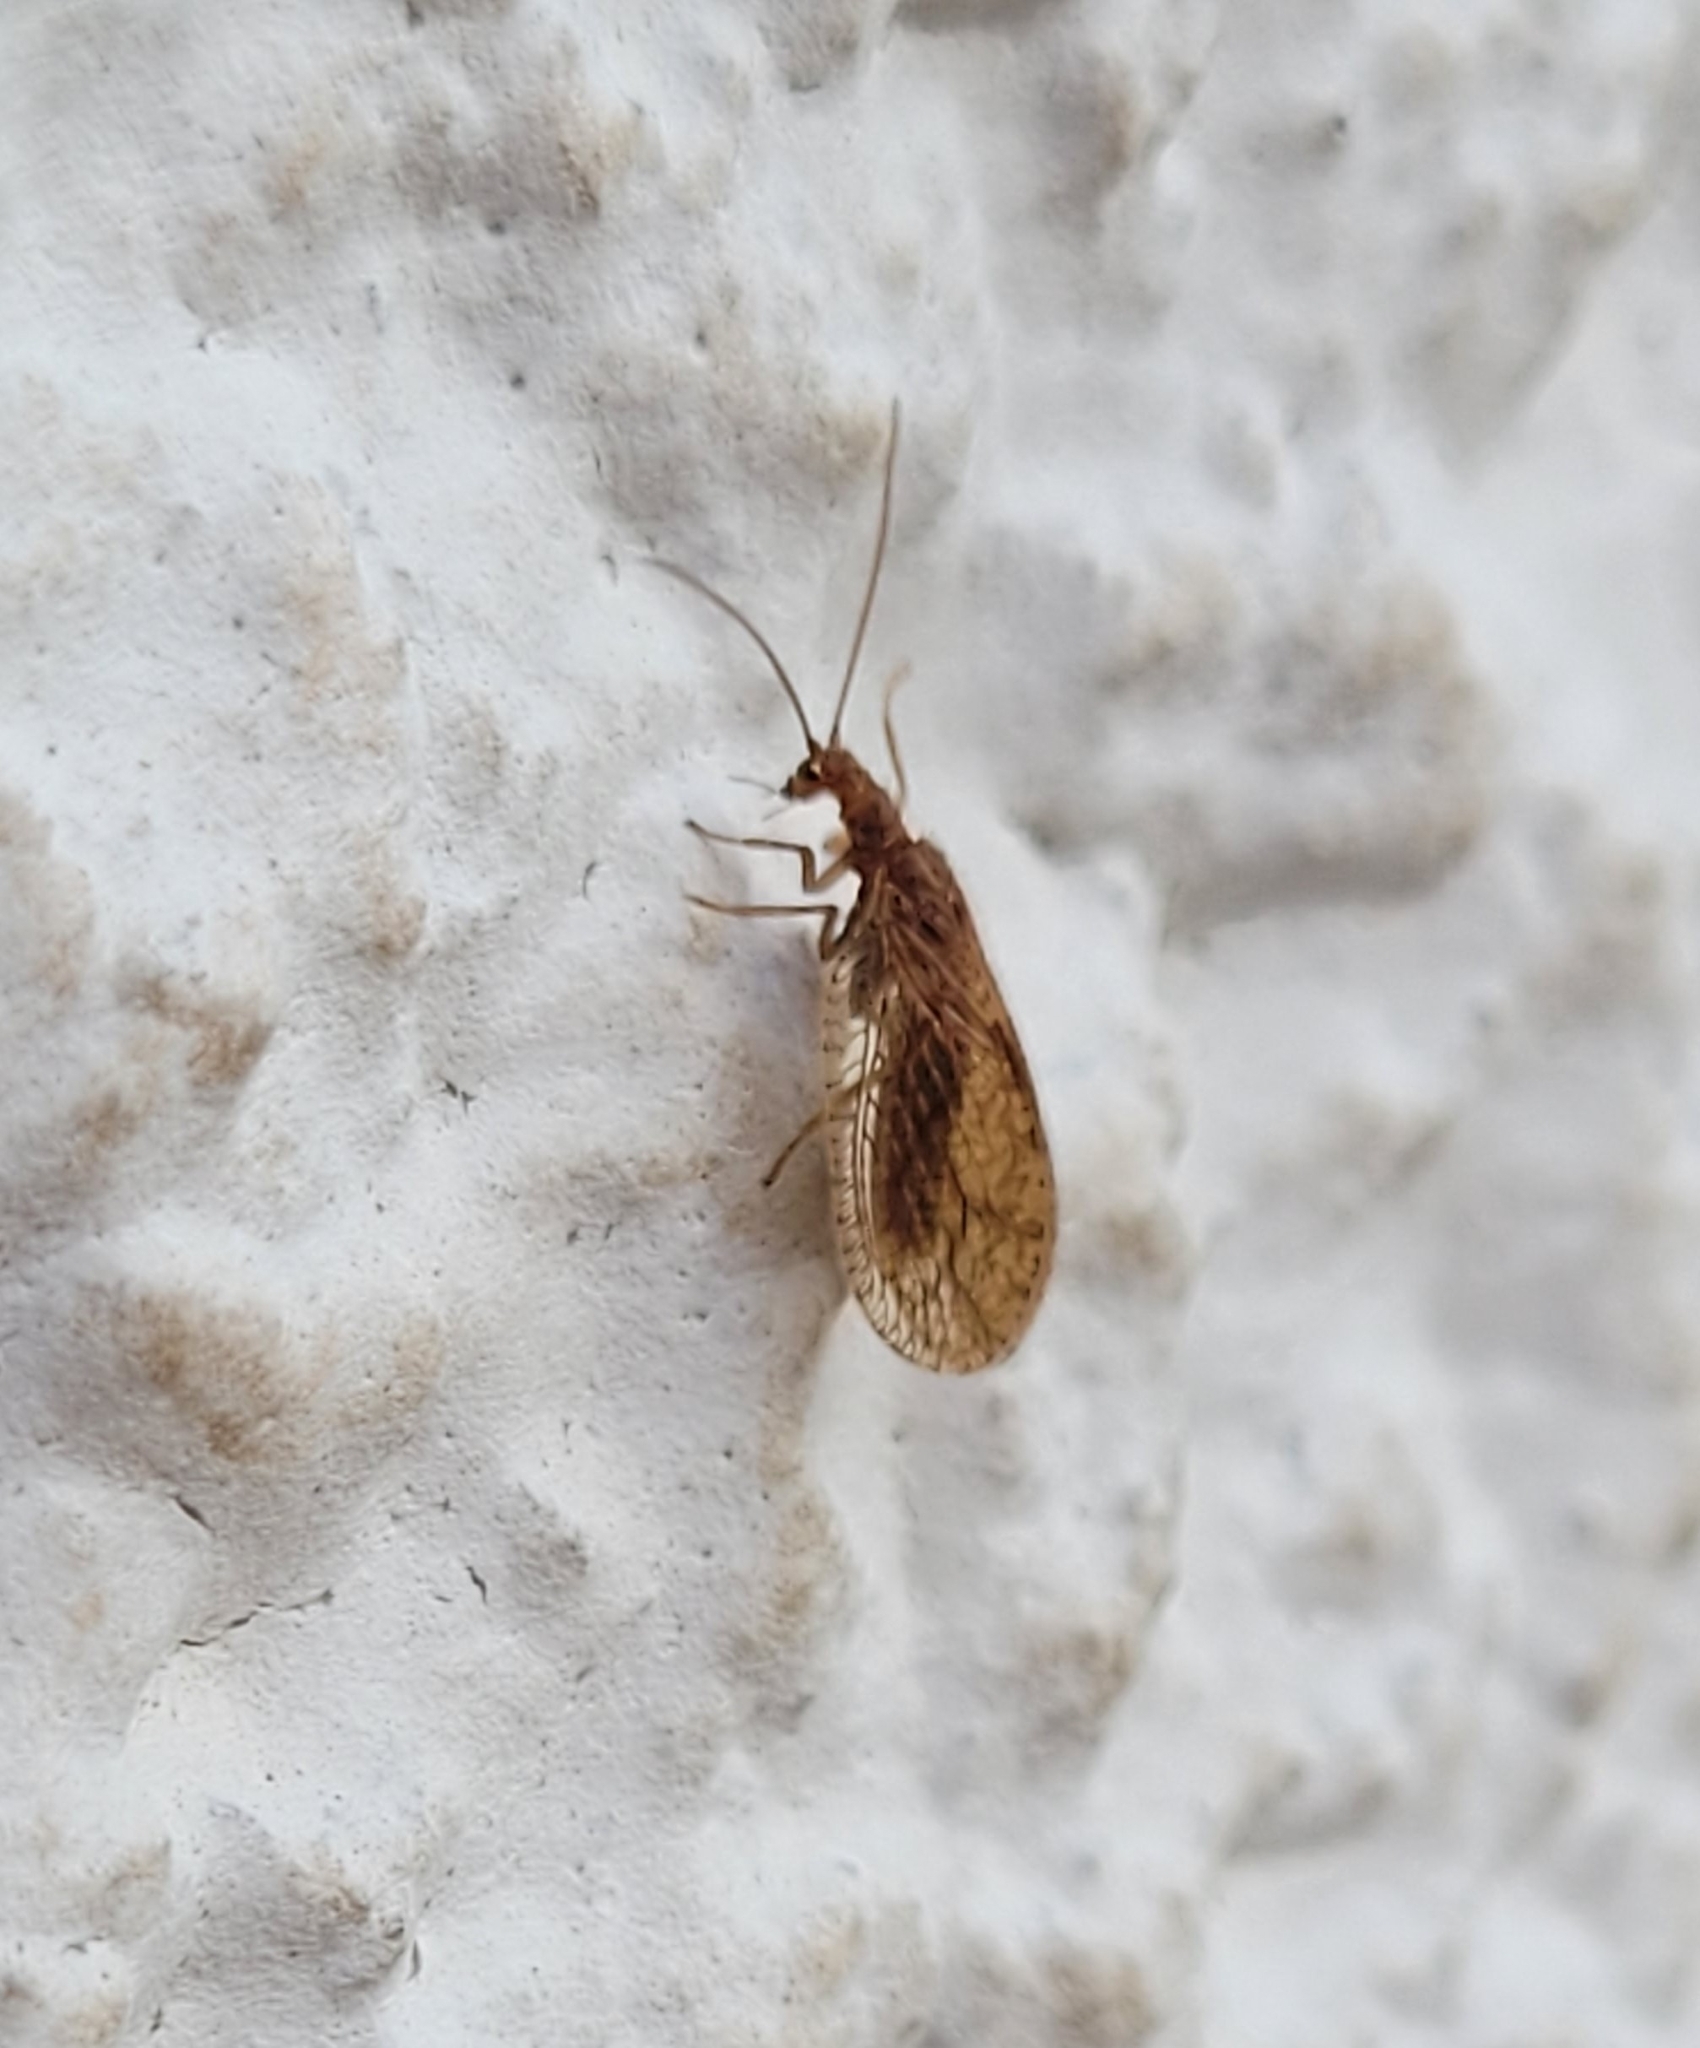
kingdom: Animalia
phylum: Arthropoda
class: Insecta
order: Neuroptera
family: Hemerobiidae
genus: Micromus
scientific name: Micromus angulatus
